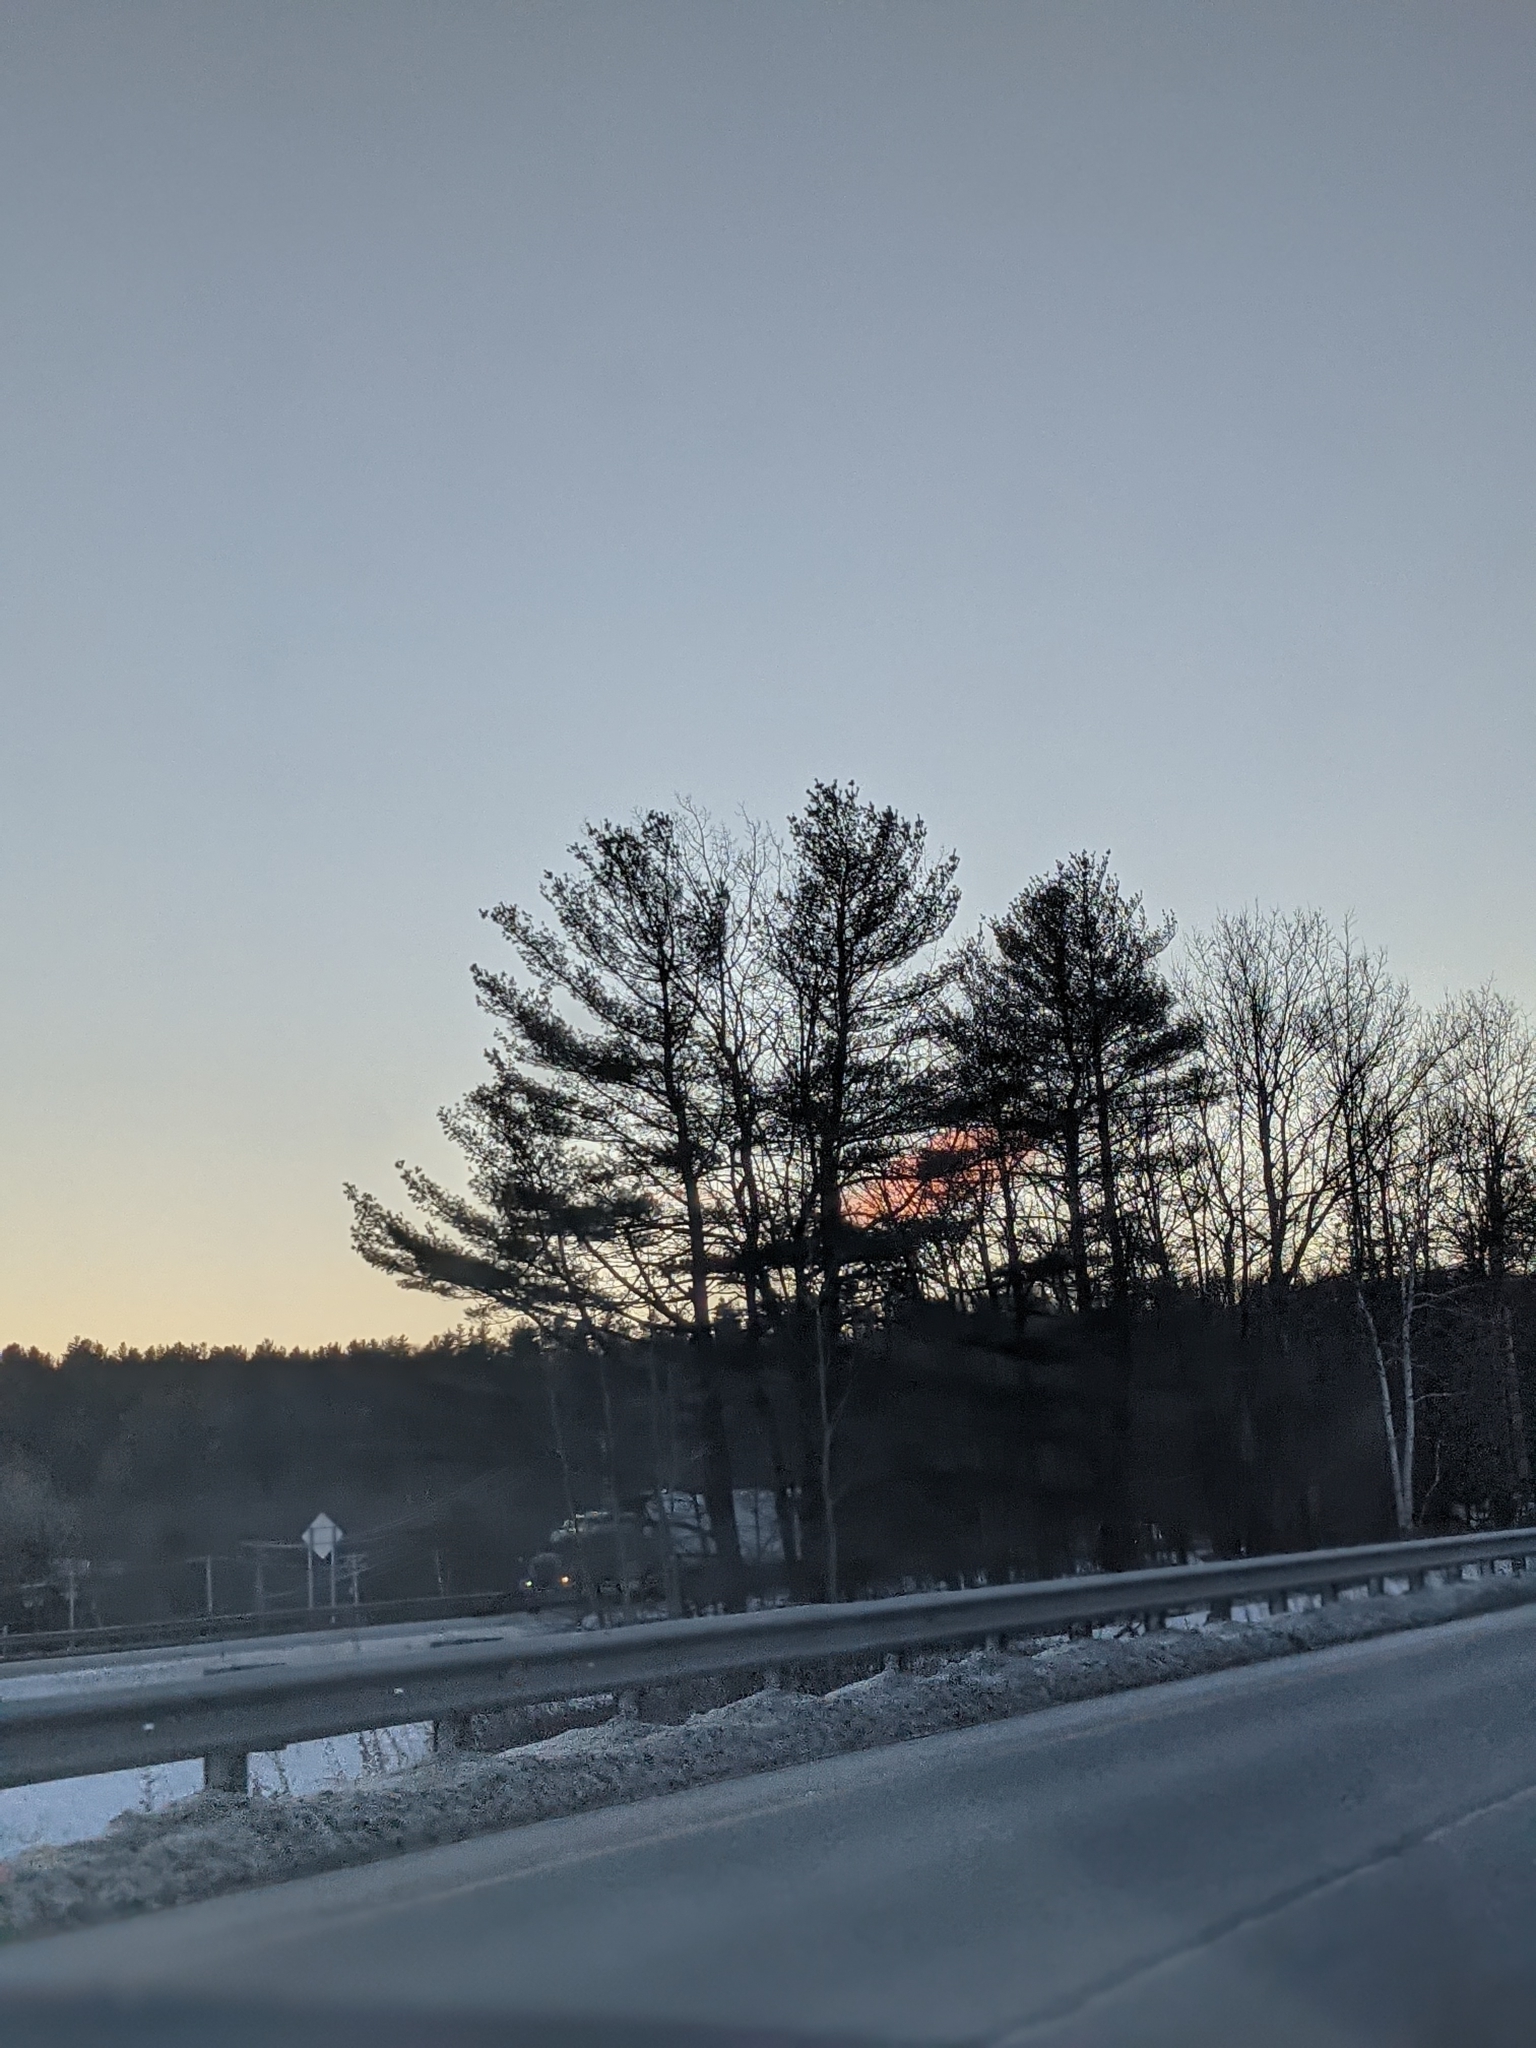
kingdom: Plantae
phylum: Tracheophyta
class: Pinopsida
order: Pinales
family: Pinaceae
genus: Pinus
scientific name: Pinus strobus
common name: Weymouth pine
